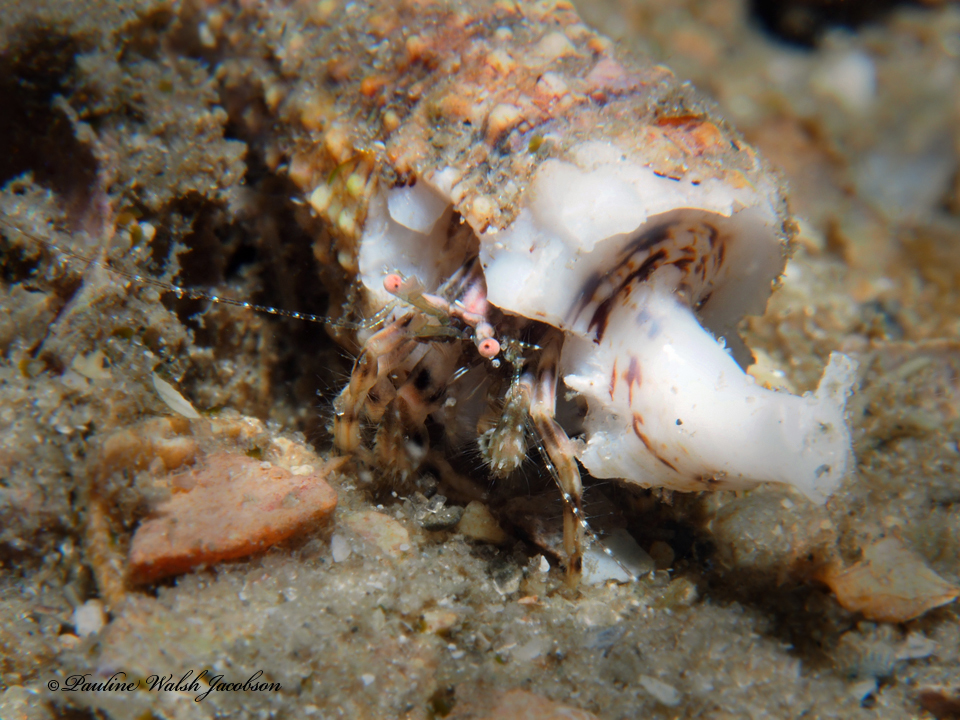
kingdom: Animalia
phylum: Arthropoda
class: Malacostraca
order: Decapoda
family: Paguridae
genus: Pagurus
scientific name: Pagurus brevidactylus
